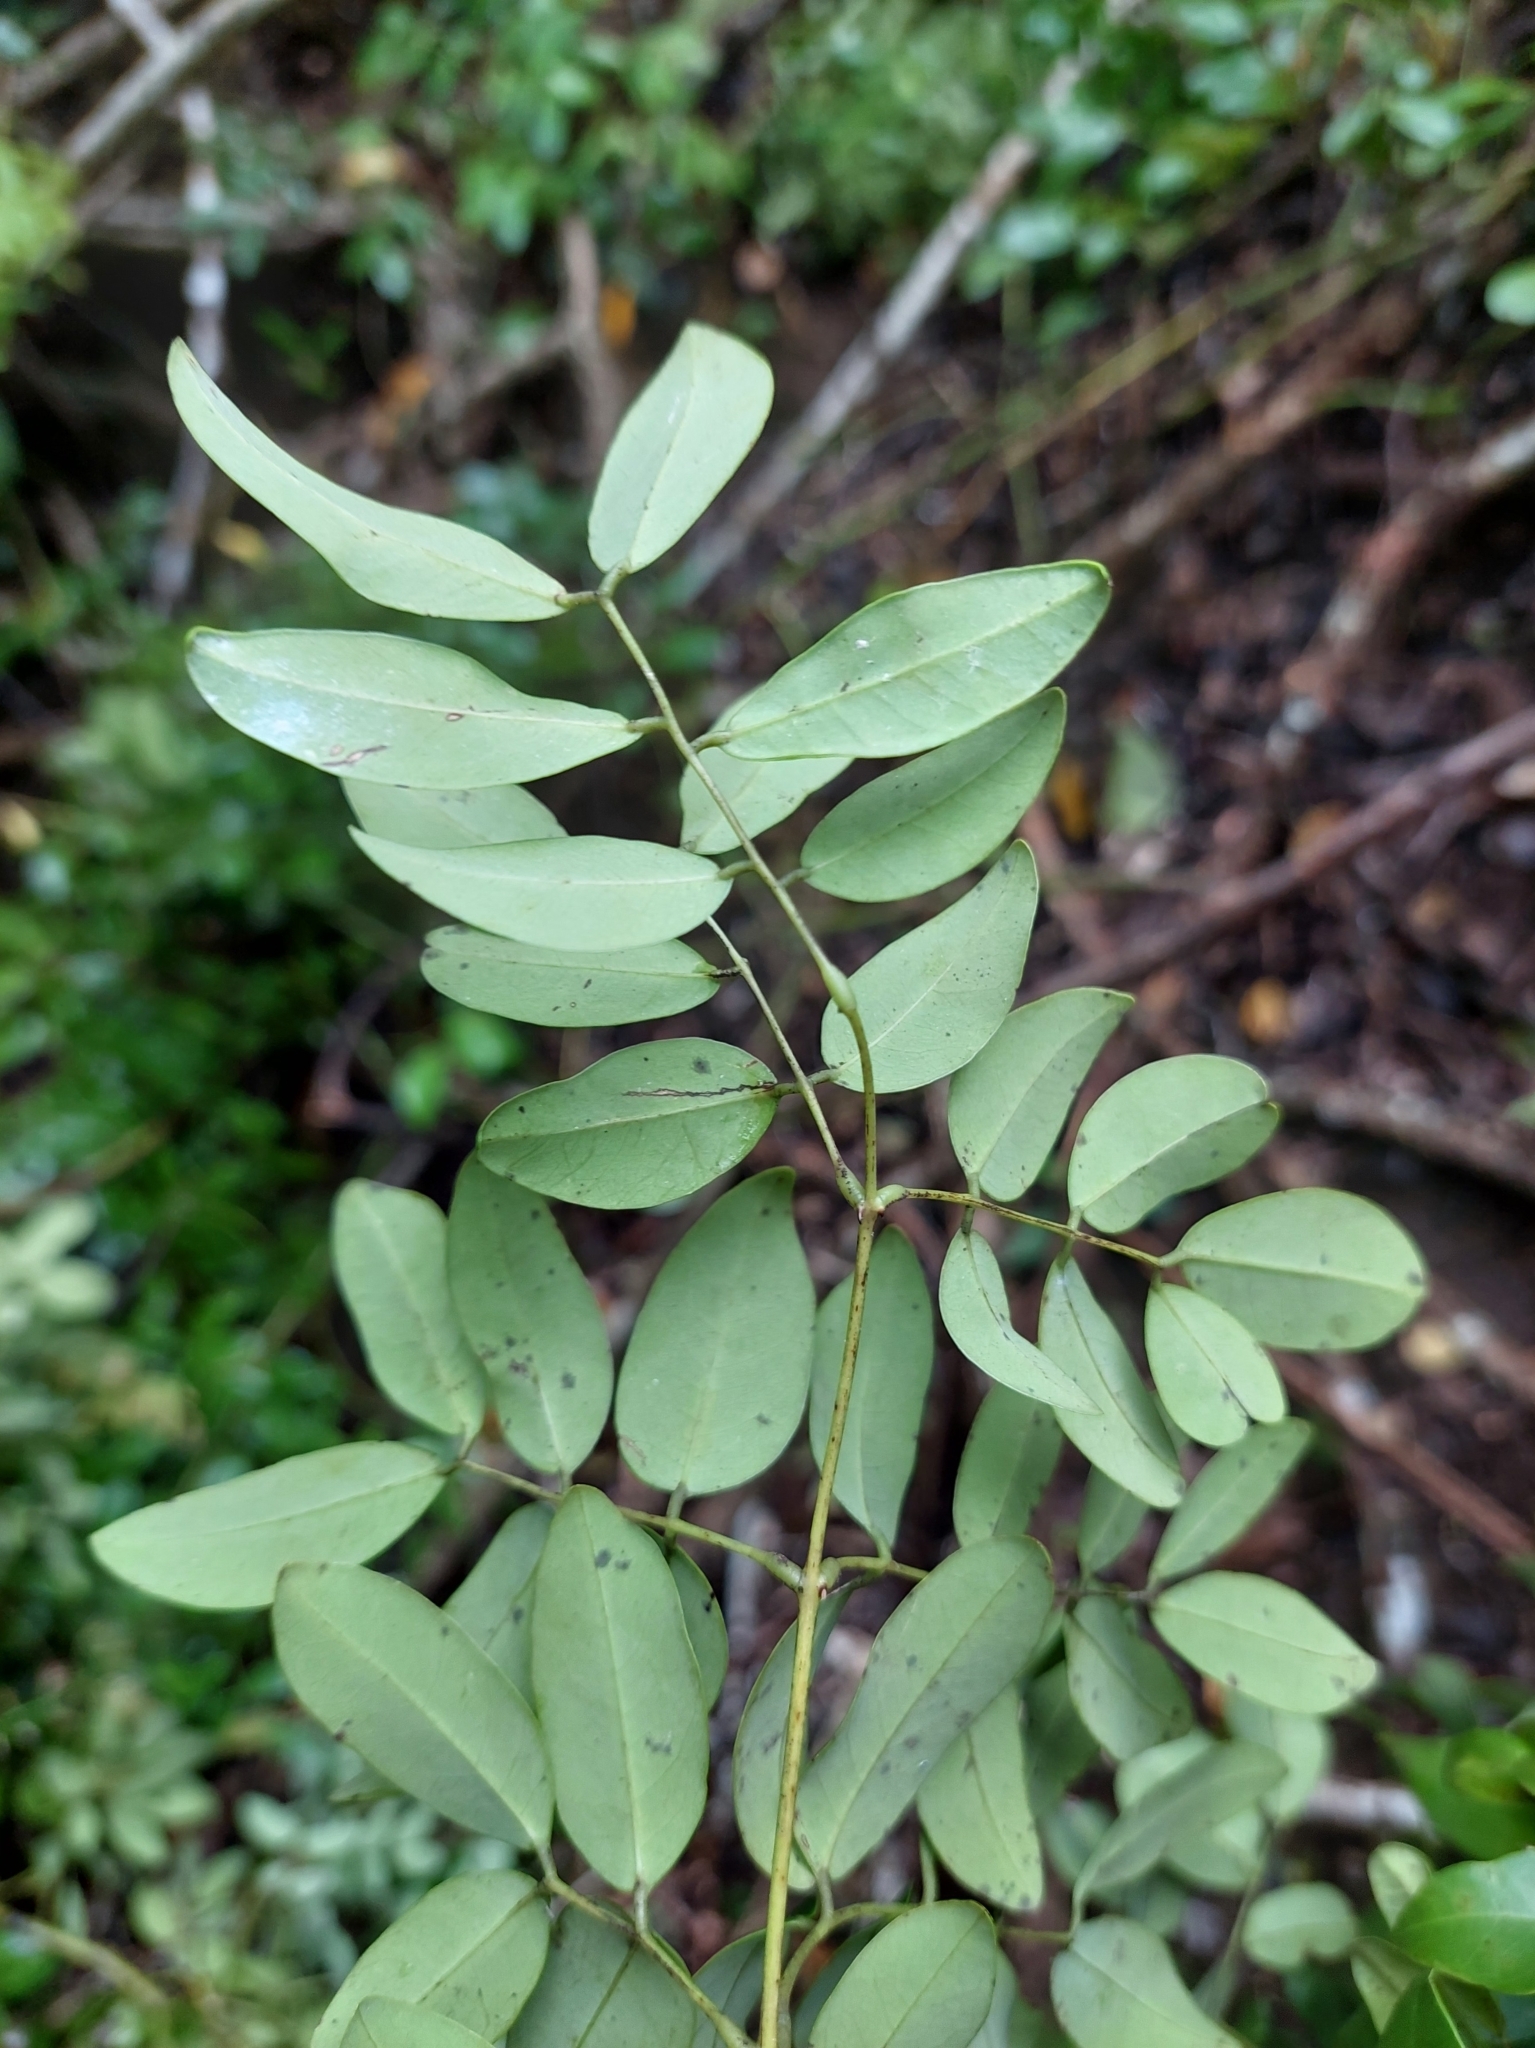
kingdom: Plantae
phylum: Tracheophyta
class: Magnoliopsida
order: Fabales
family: Fabaceae
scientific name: Fabaceae
